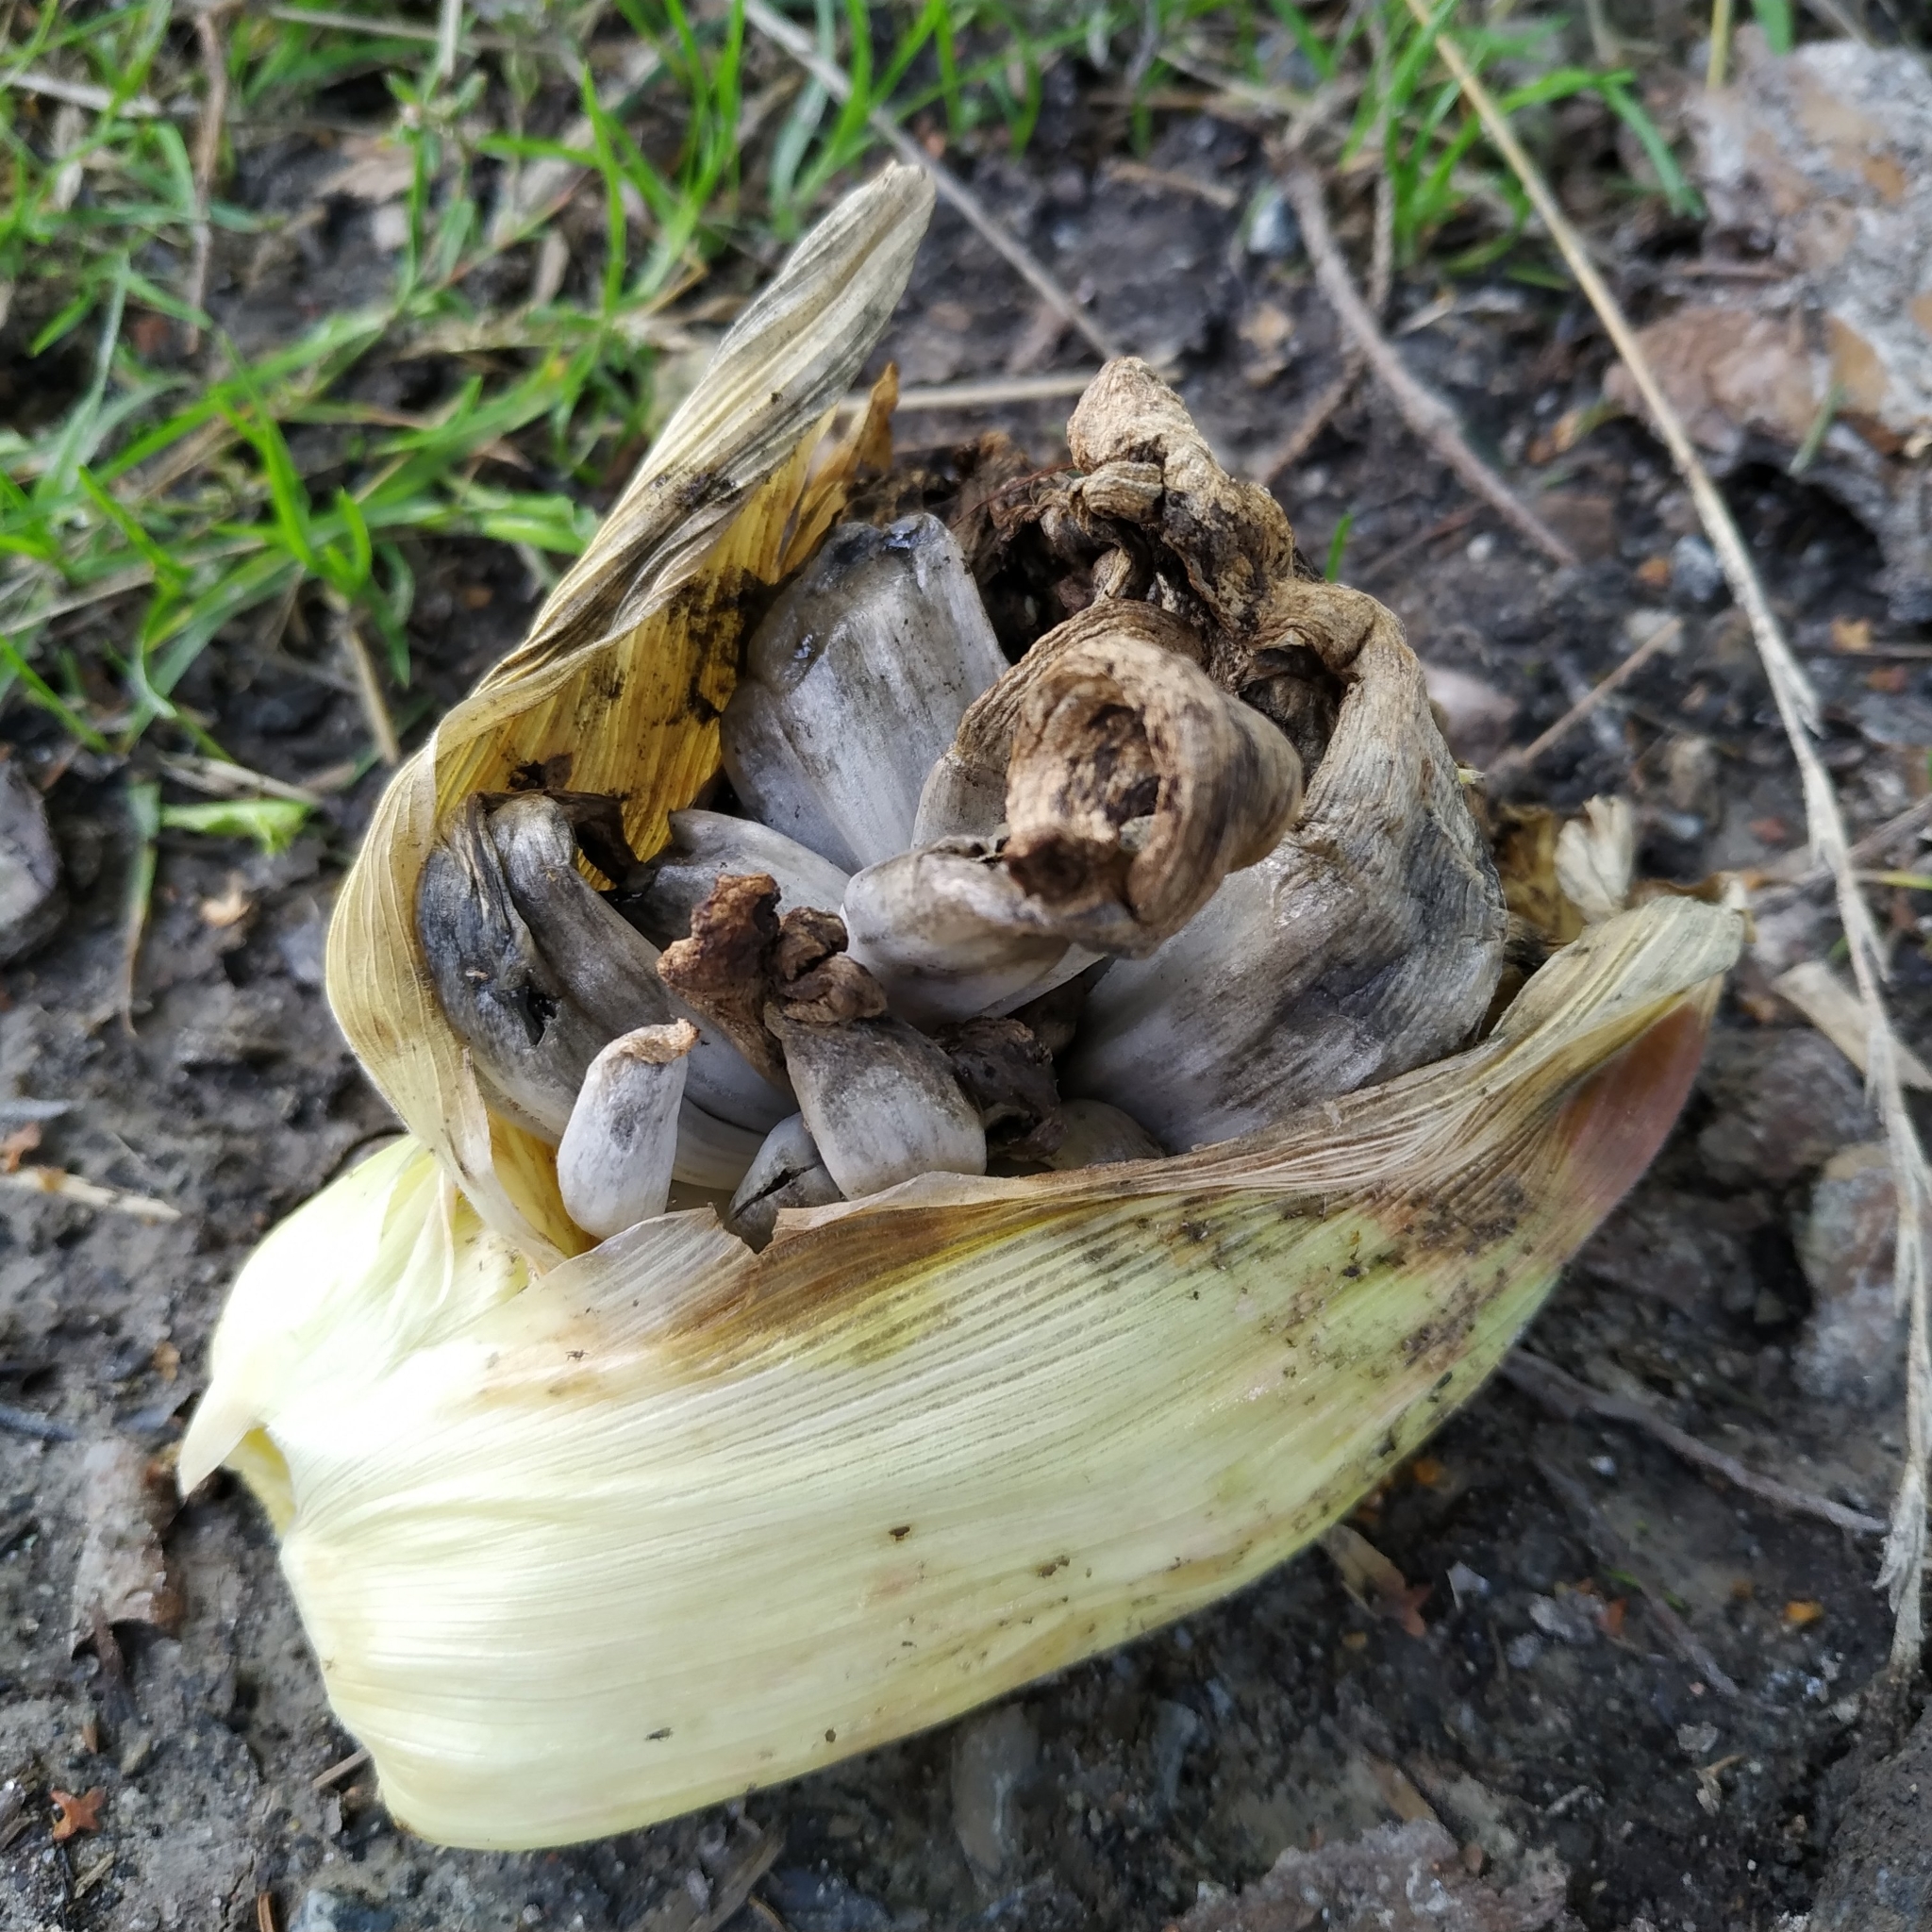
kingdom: Fungi
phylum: Basidiomycota
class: Ustilaginomycetes
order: Ustilaginales
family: Ustilaginaceae
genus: Mycosarcoma
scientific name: Mycosarcoma maydis
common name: Corn smut
